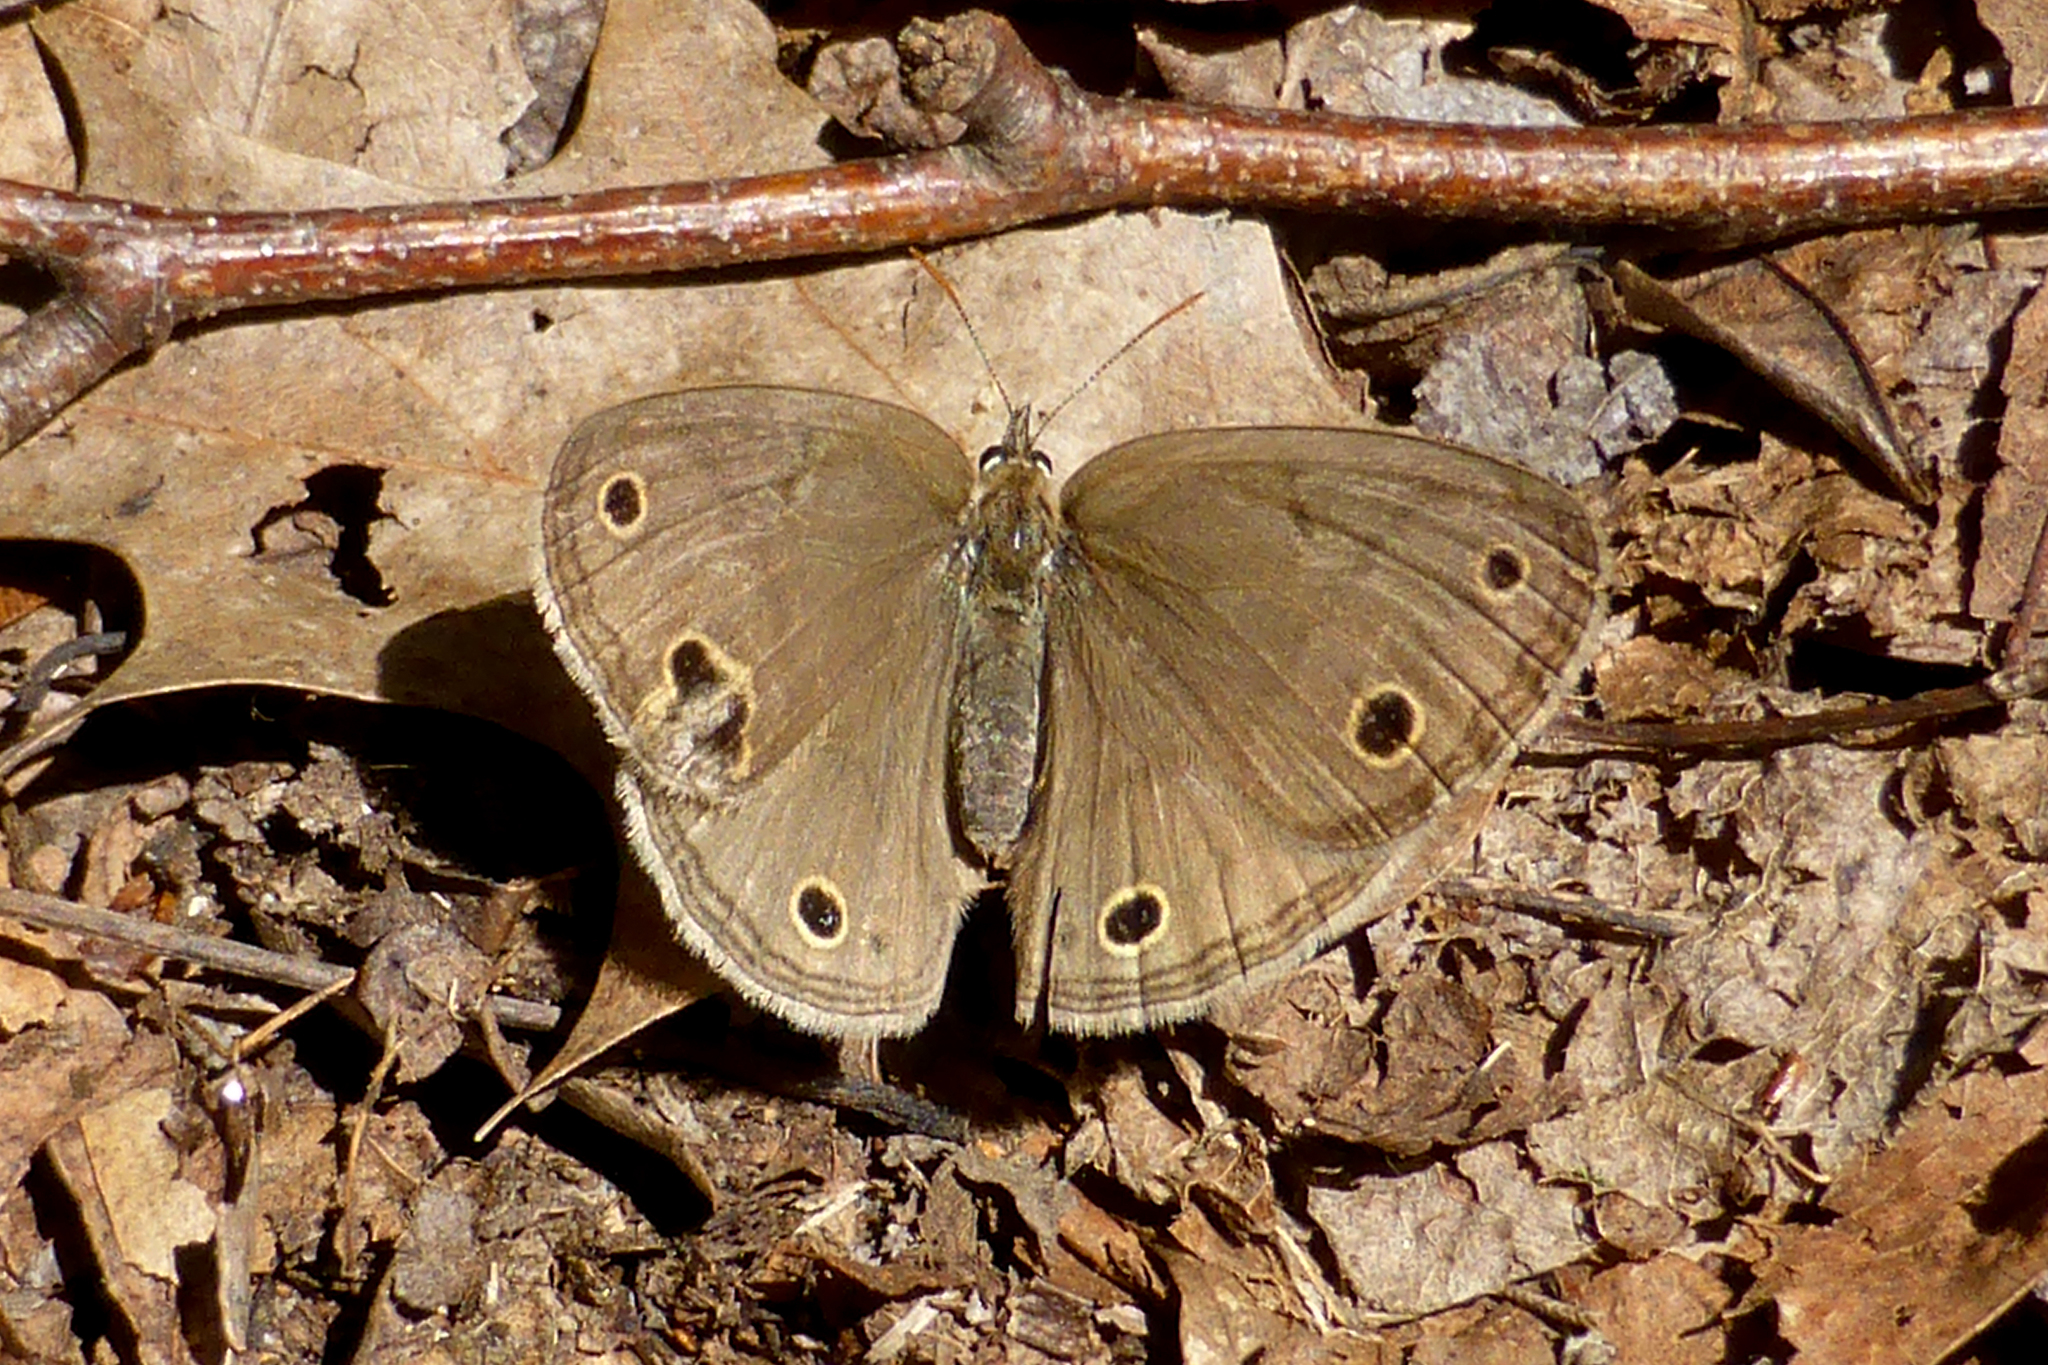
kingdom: Animalia
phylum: Arthropoda
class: Insecta
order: Lepidoptera
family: Nymphalidae
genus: Euptychia
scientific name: Euptychia cymela
